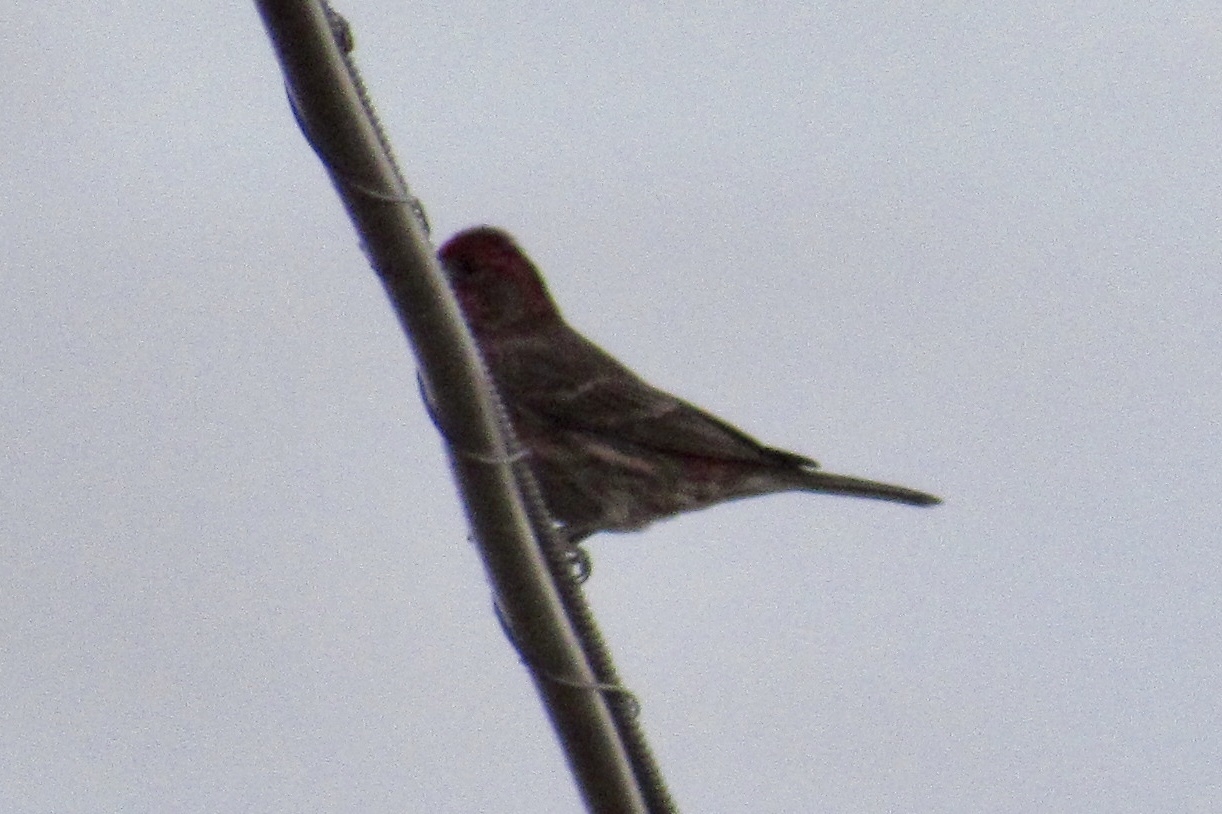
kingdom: Animalia
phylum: Chordata
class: Aves
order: Passeriformes
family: Fringillidae
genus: Haemorhous
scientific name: Haemorhous mexicanus
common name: House finch
